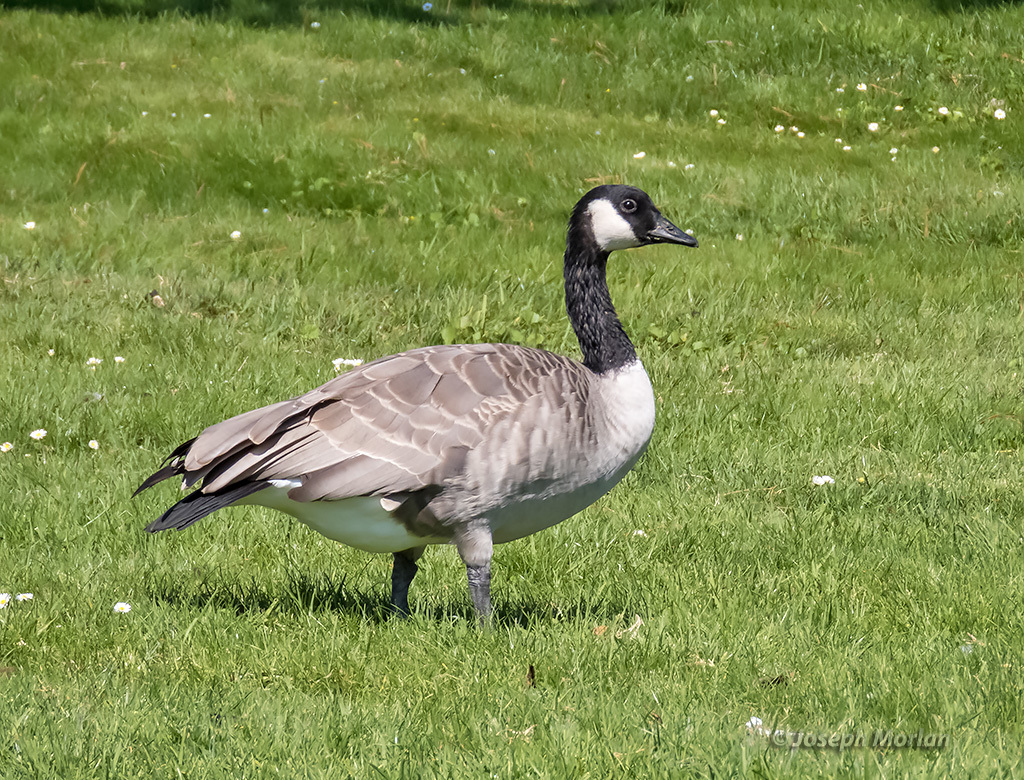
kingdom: Animalia
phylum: Chordata
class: Aves
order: Anseriformes
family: Anatidae
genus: Branta
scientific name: Branta canadensis
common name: Canada goose
